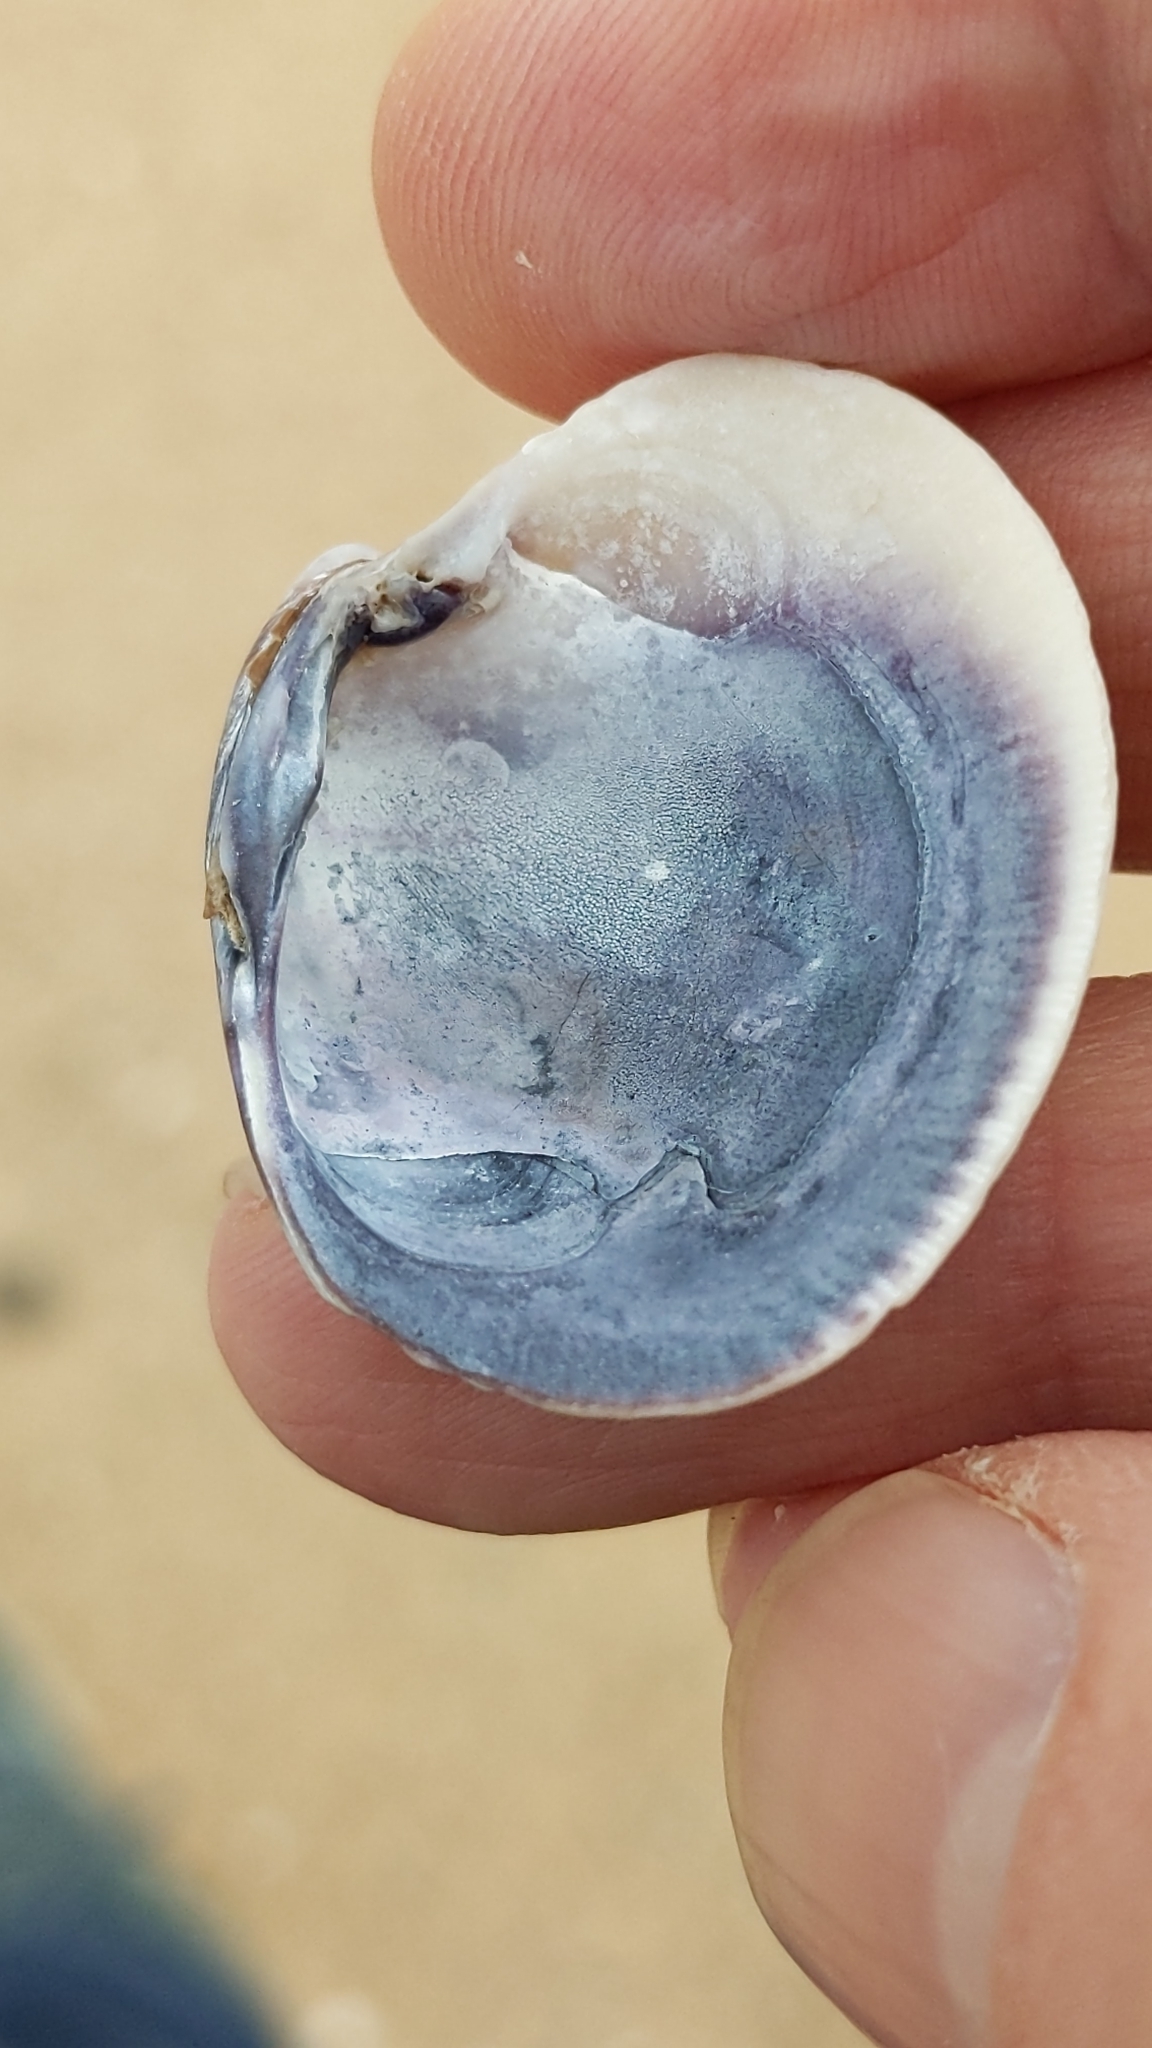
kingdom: Animalia
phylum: Mollusca
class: Bivalvia
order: Venerida
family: Veneridae
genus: Austrovenus
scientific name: Austrovenus stutchburyi
